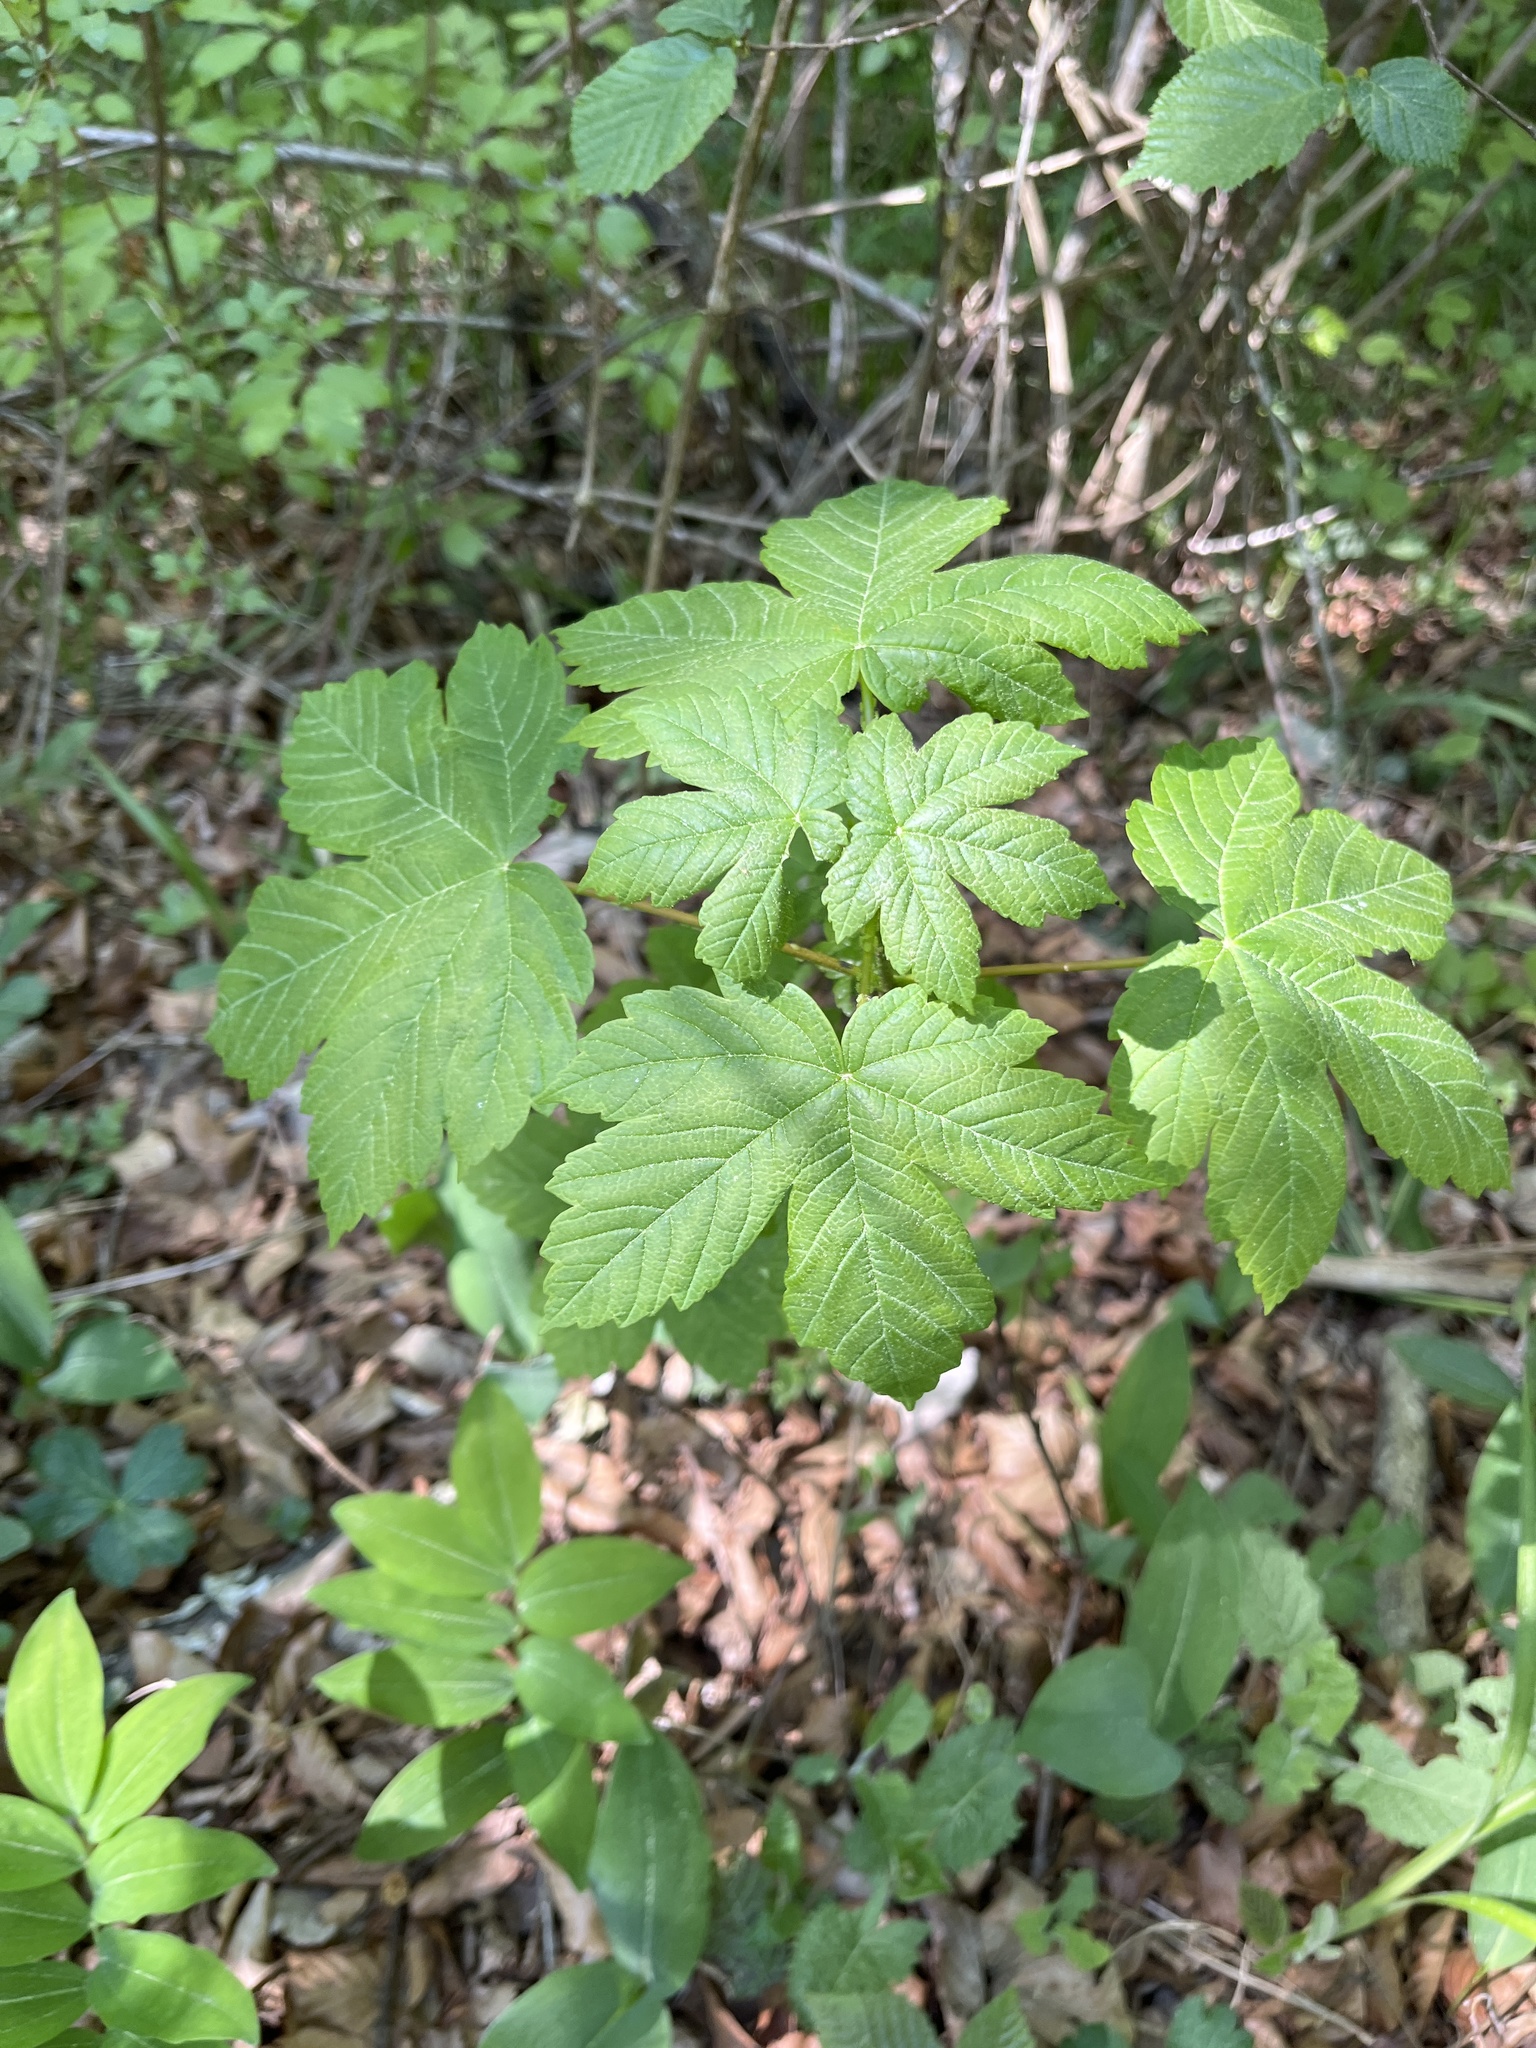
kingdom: Plantae
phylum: Tracheophyta
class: Magnoliopsida
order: Sapindales
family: Sapindaceae
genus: Acer
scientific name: Acer pseudoplatanus
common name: Sycamore
